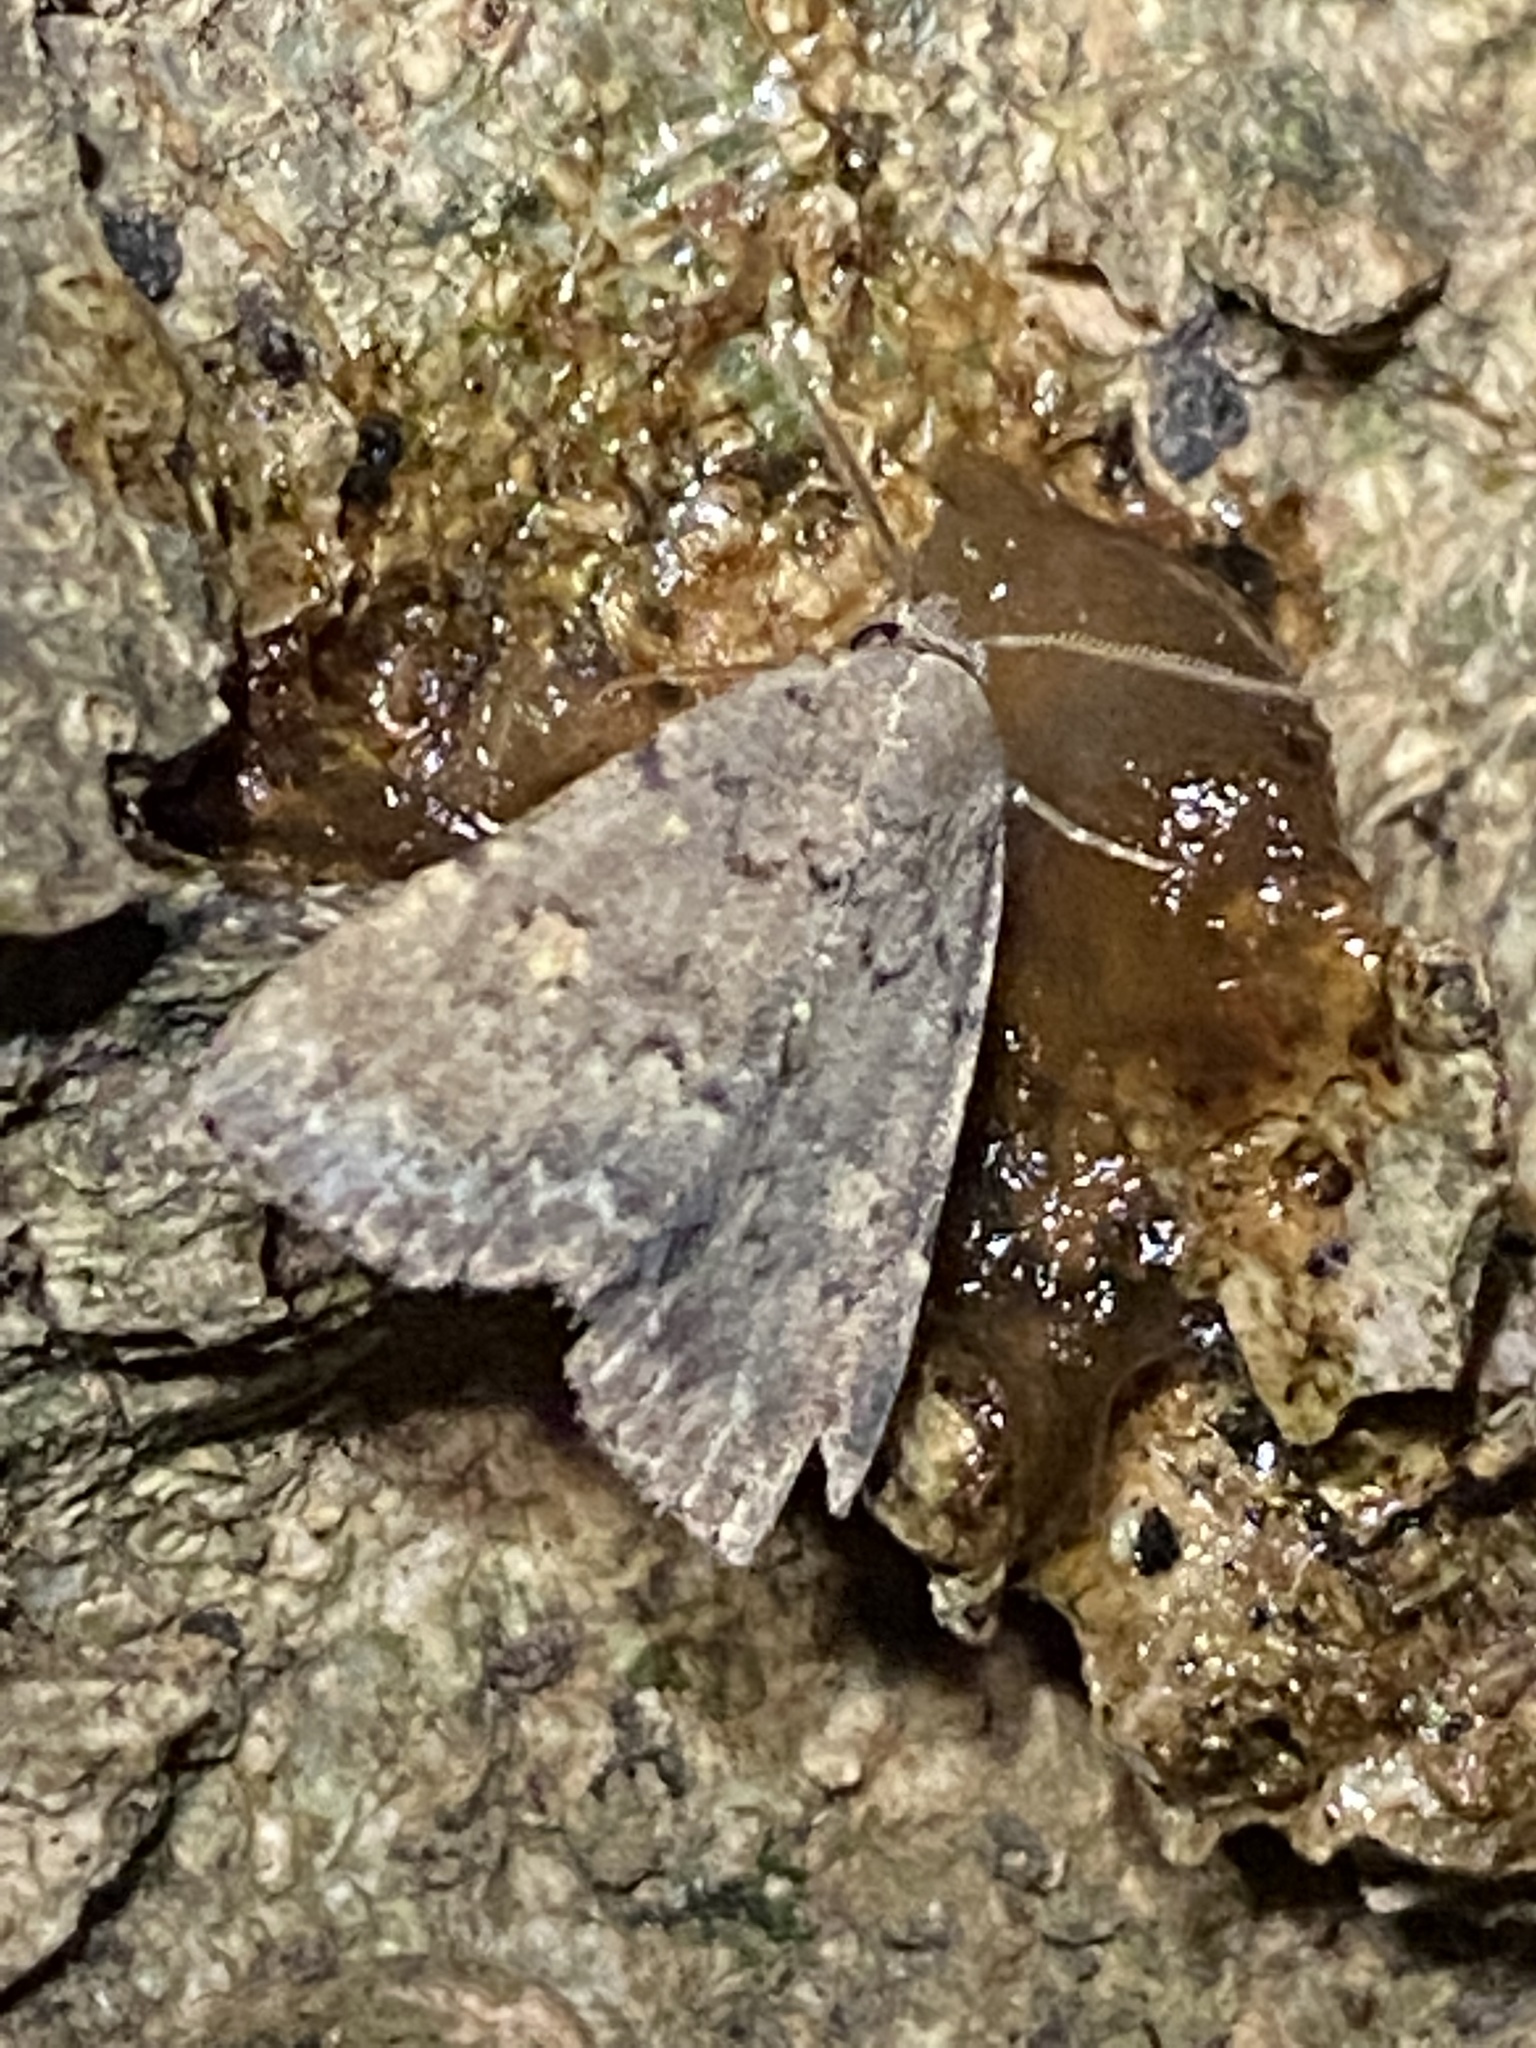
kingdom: Animalia
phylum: Arthropoda
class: Insecta
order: Lepidoptera
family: Erebidae
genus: Idia
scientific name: Idia aemula
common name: Common idia moth
